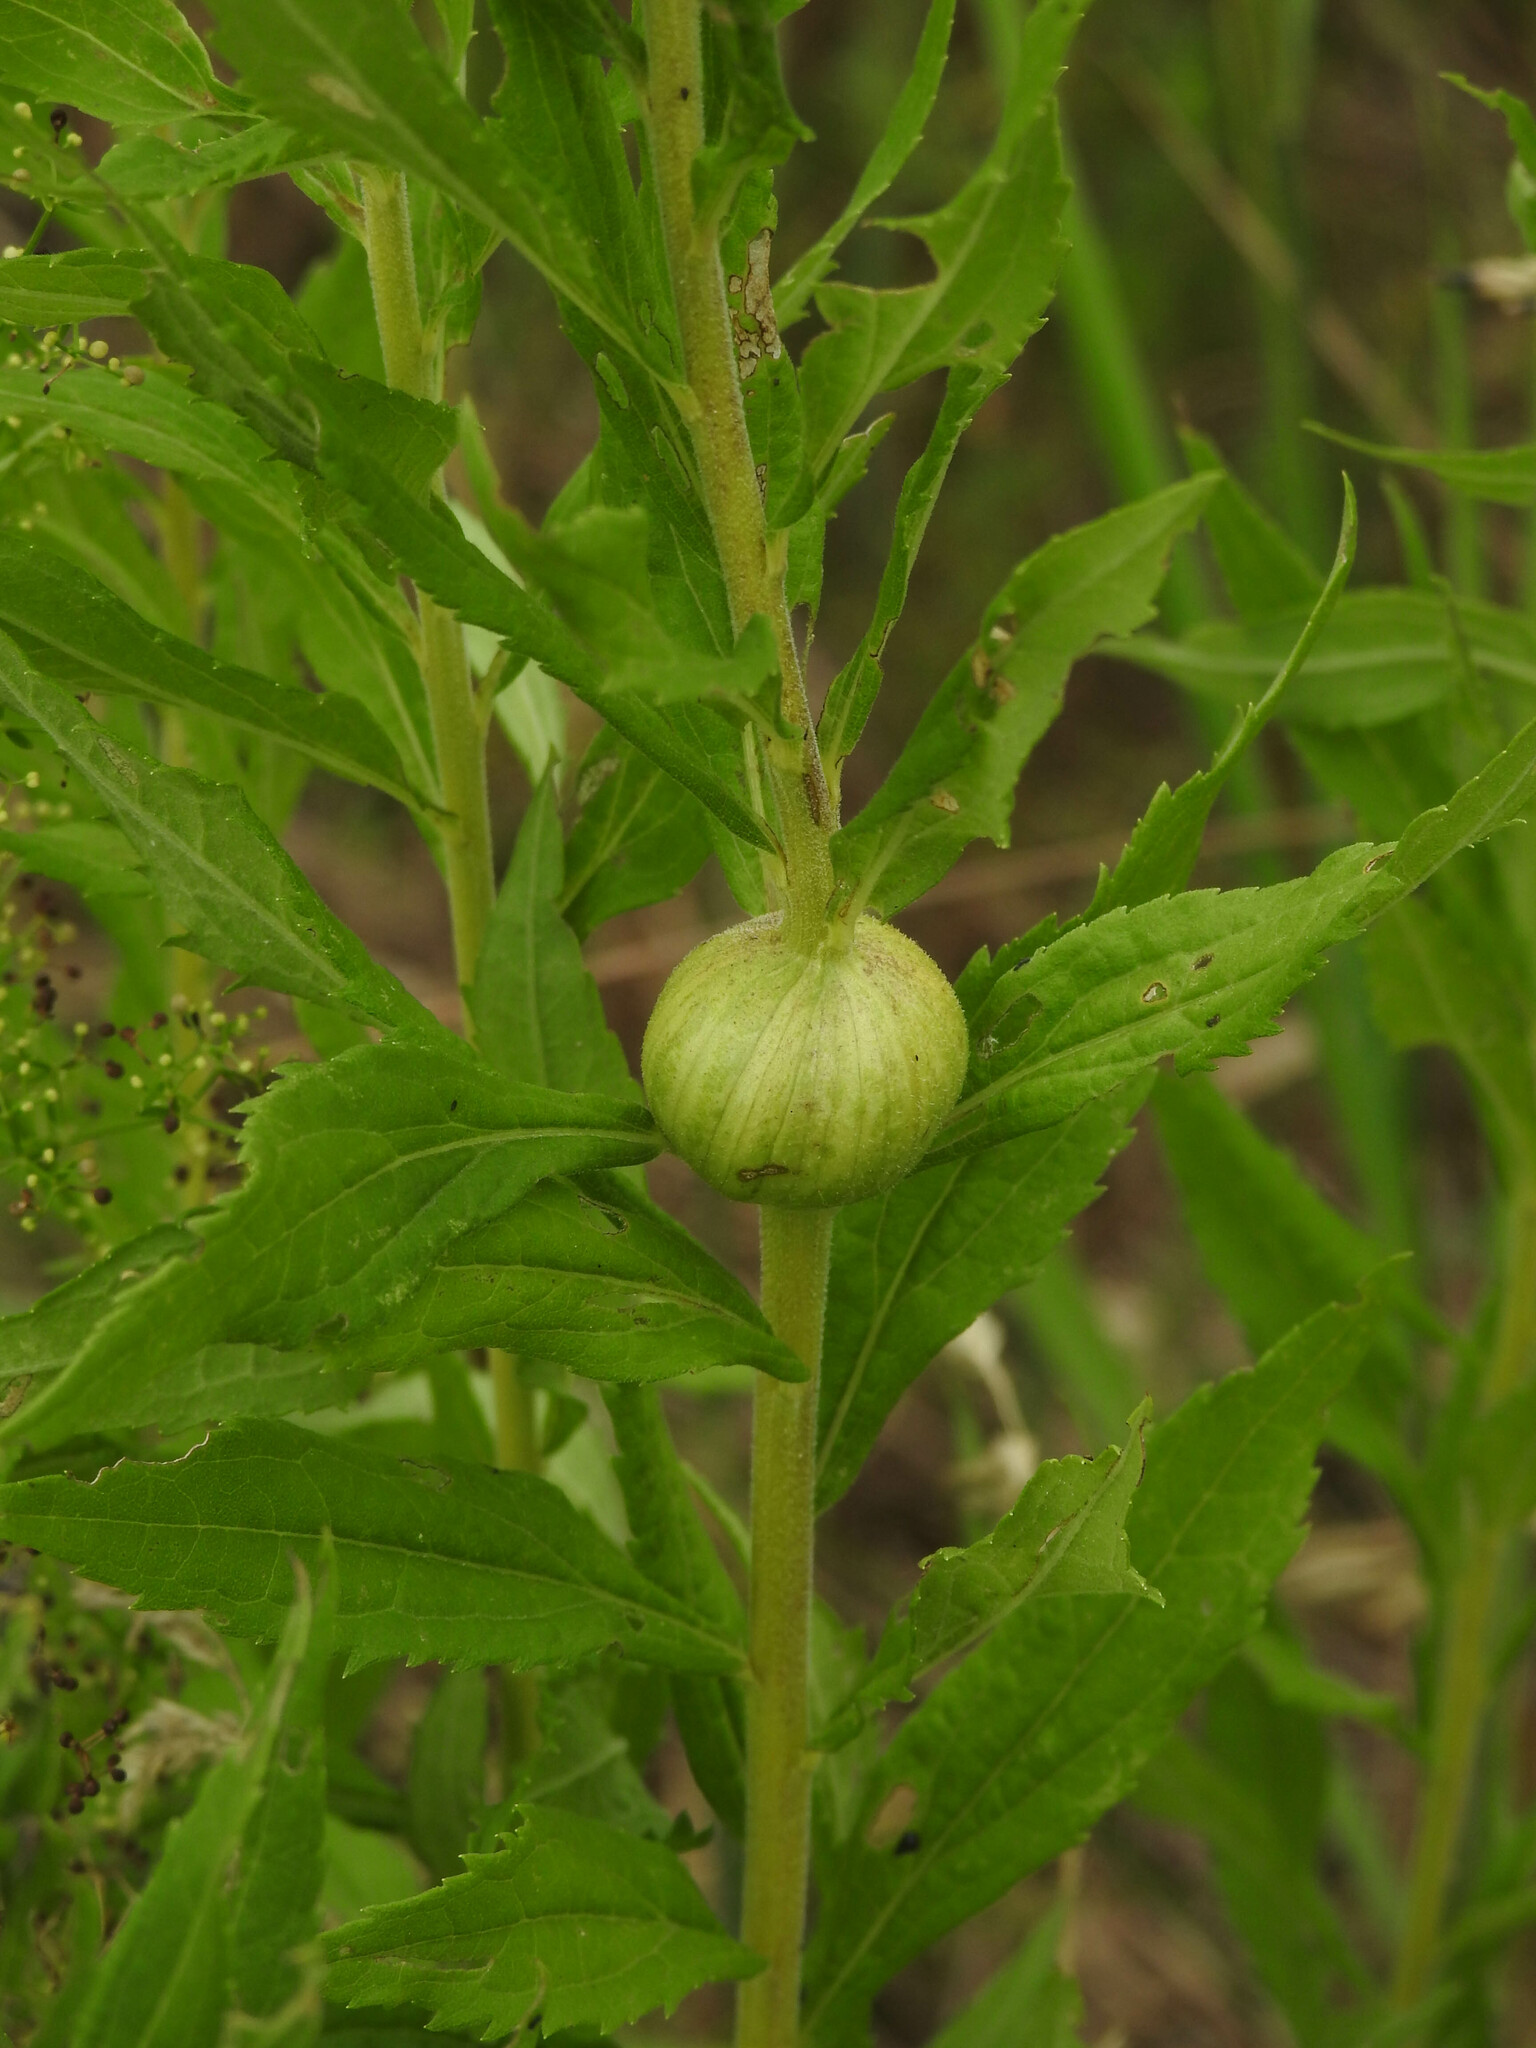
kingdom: Animalia
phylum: Arthropoda
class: Insecta
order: Diptera
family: Tephritidae
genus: Eurosta
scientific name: Eurosta solidaginis
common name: Goldenrod gall fly
